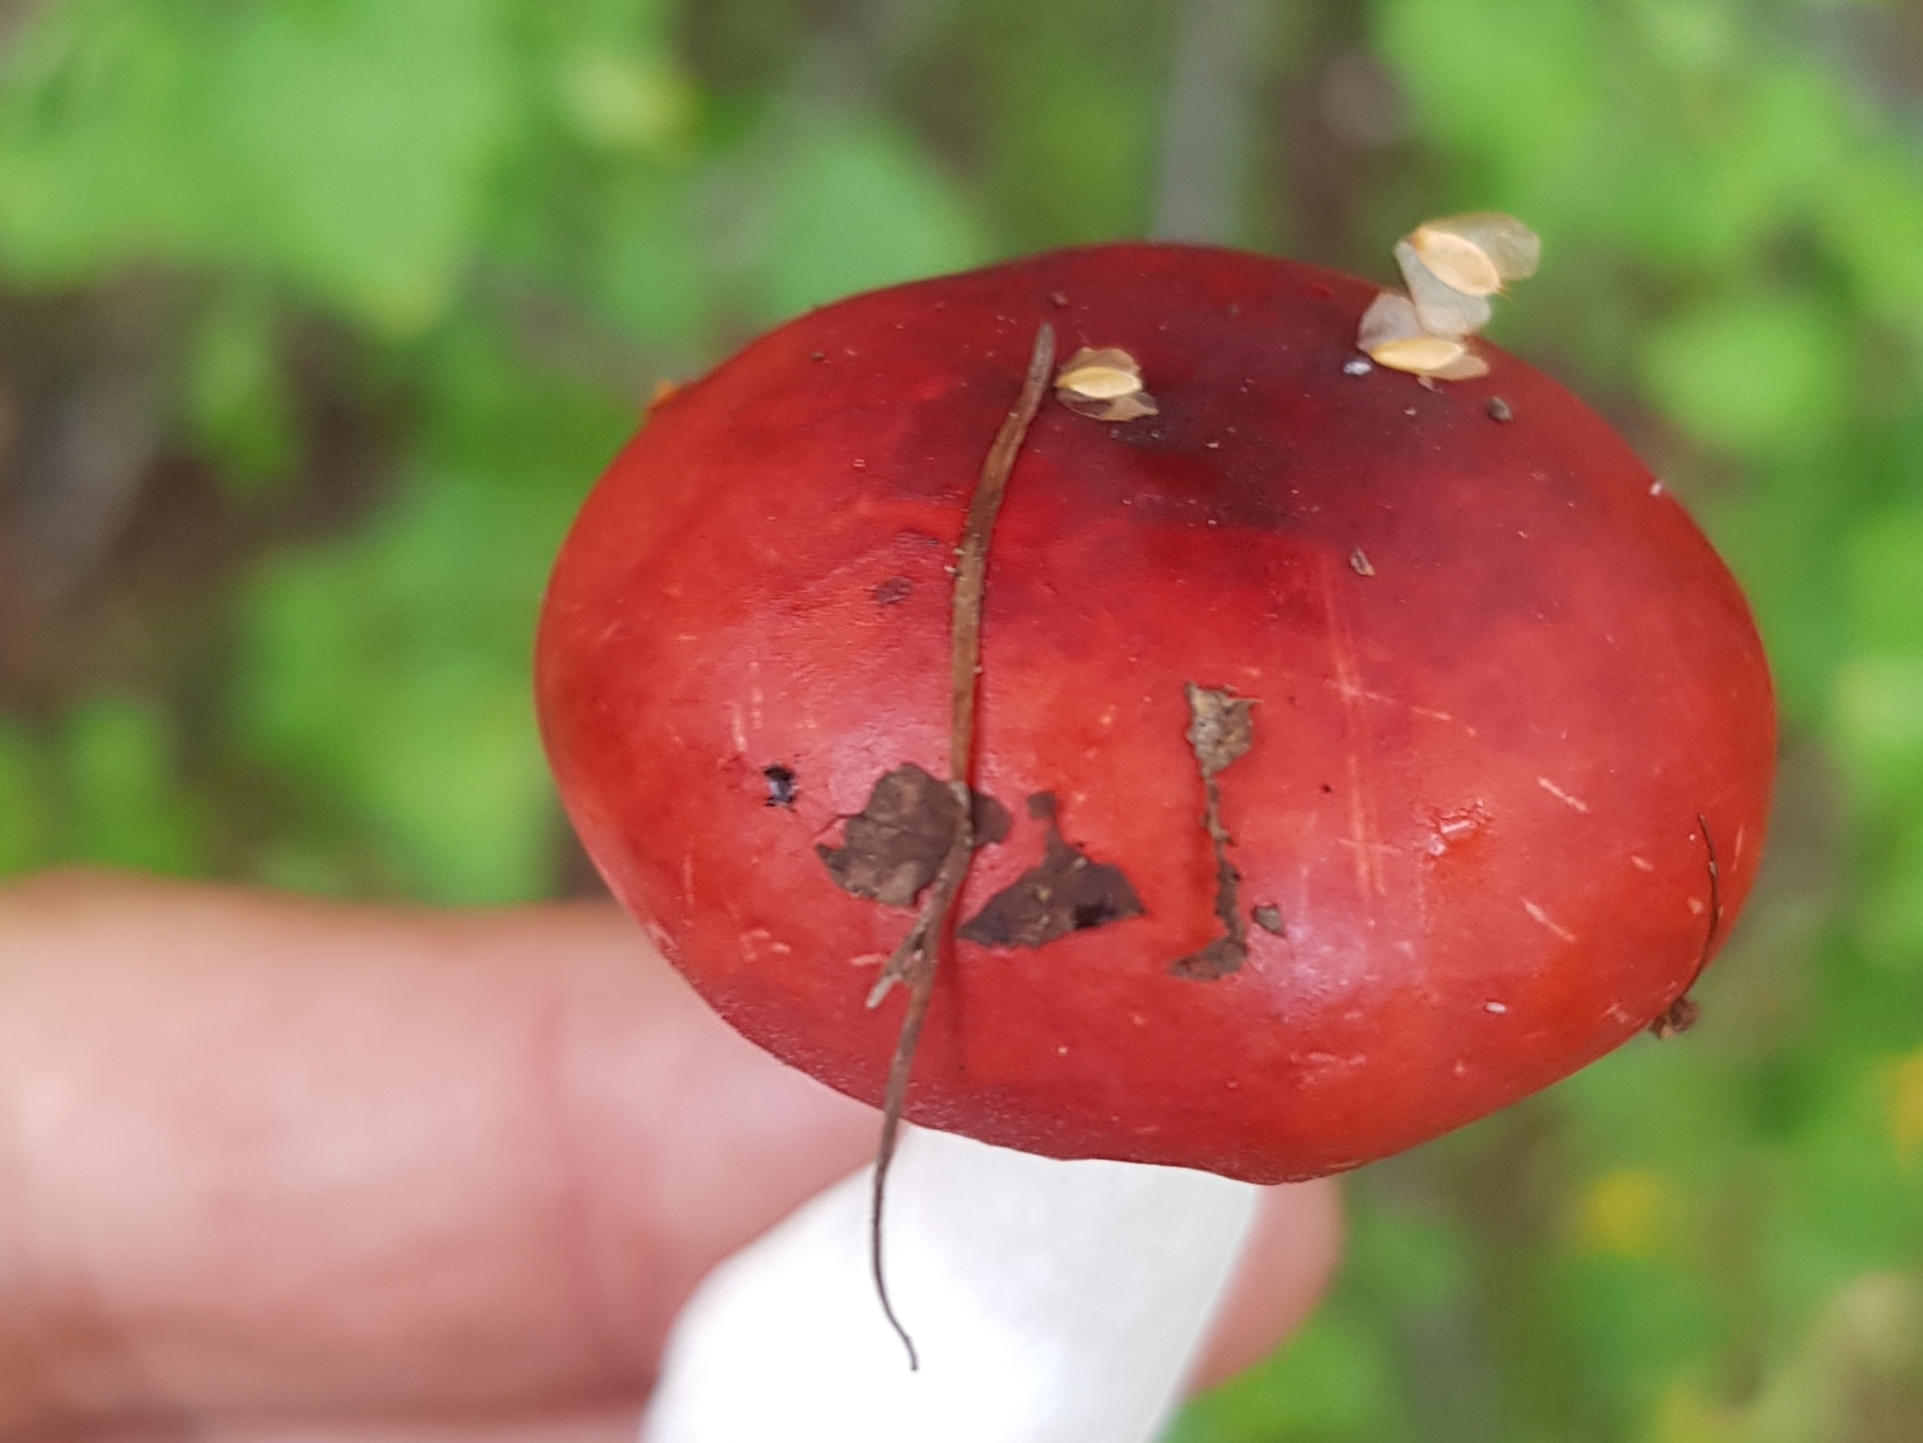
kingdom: Fungi
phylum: Basidiomycota
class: Agaricomycetes
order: Russulales
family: Russulaceae
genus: Russula
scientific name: Russula
